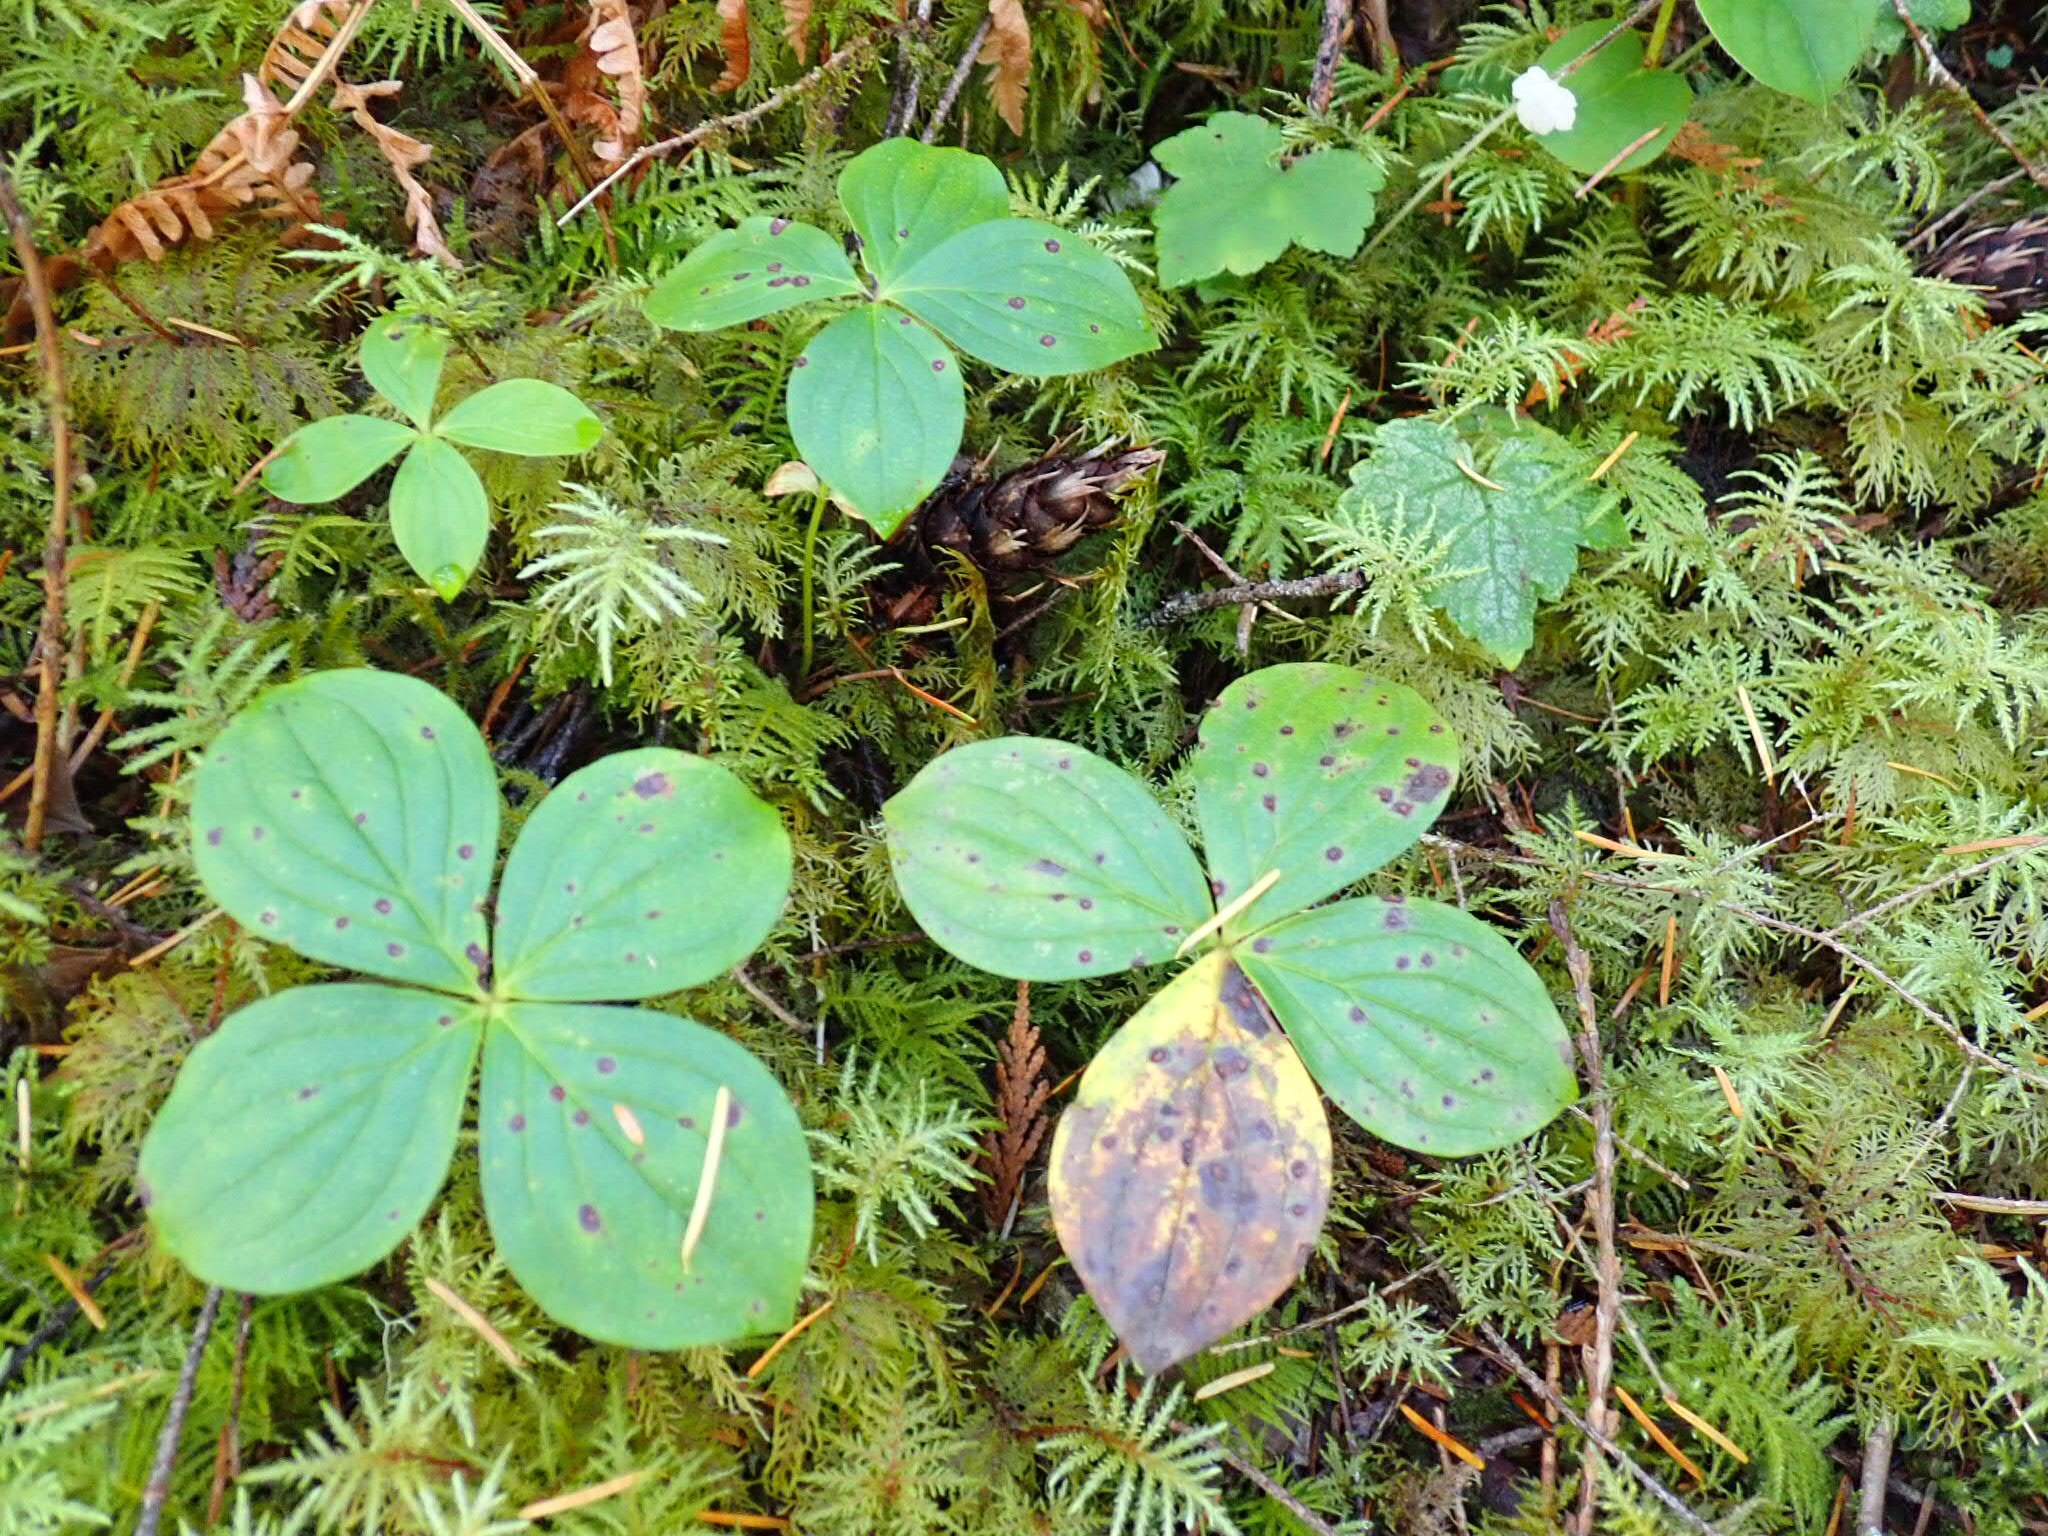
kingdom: Plantae
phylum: Tracheophyta
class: Magnoliopsida
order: Cornales
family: Cornaceae
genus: Cornus
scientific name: Cornus unalaschkensis
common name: Alaska bunchberry
